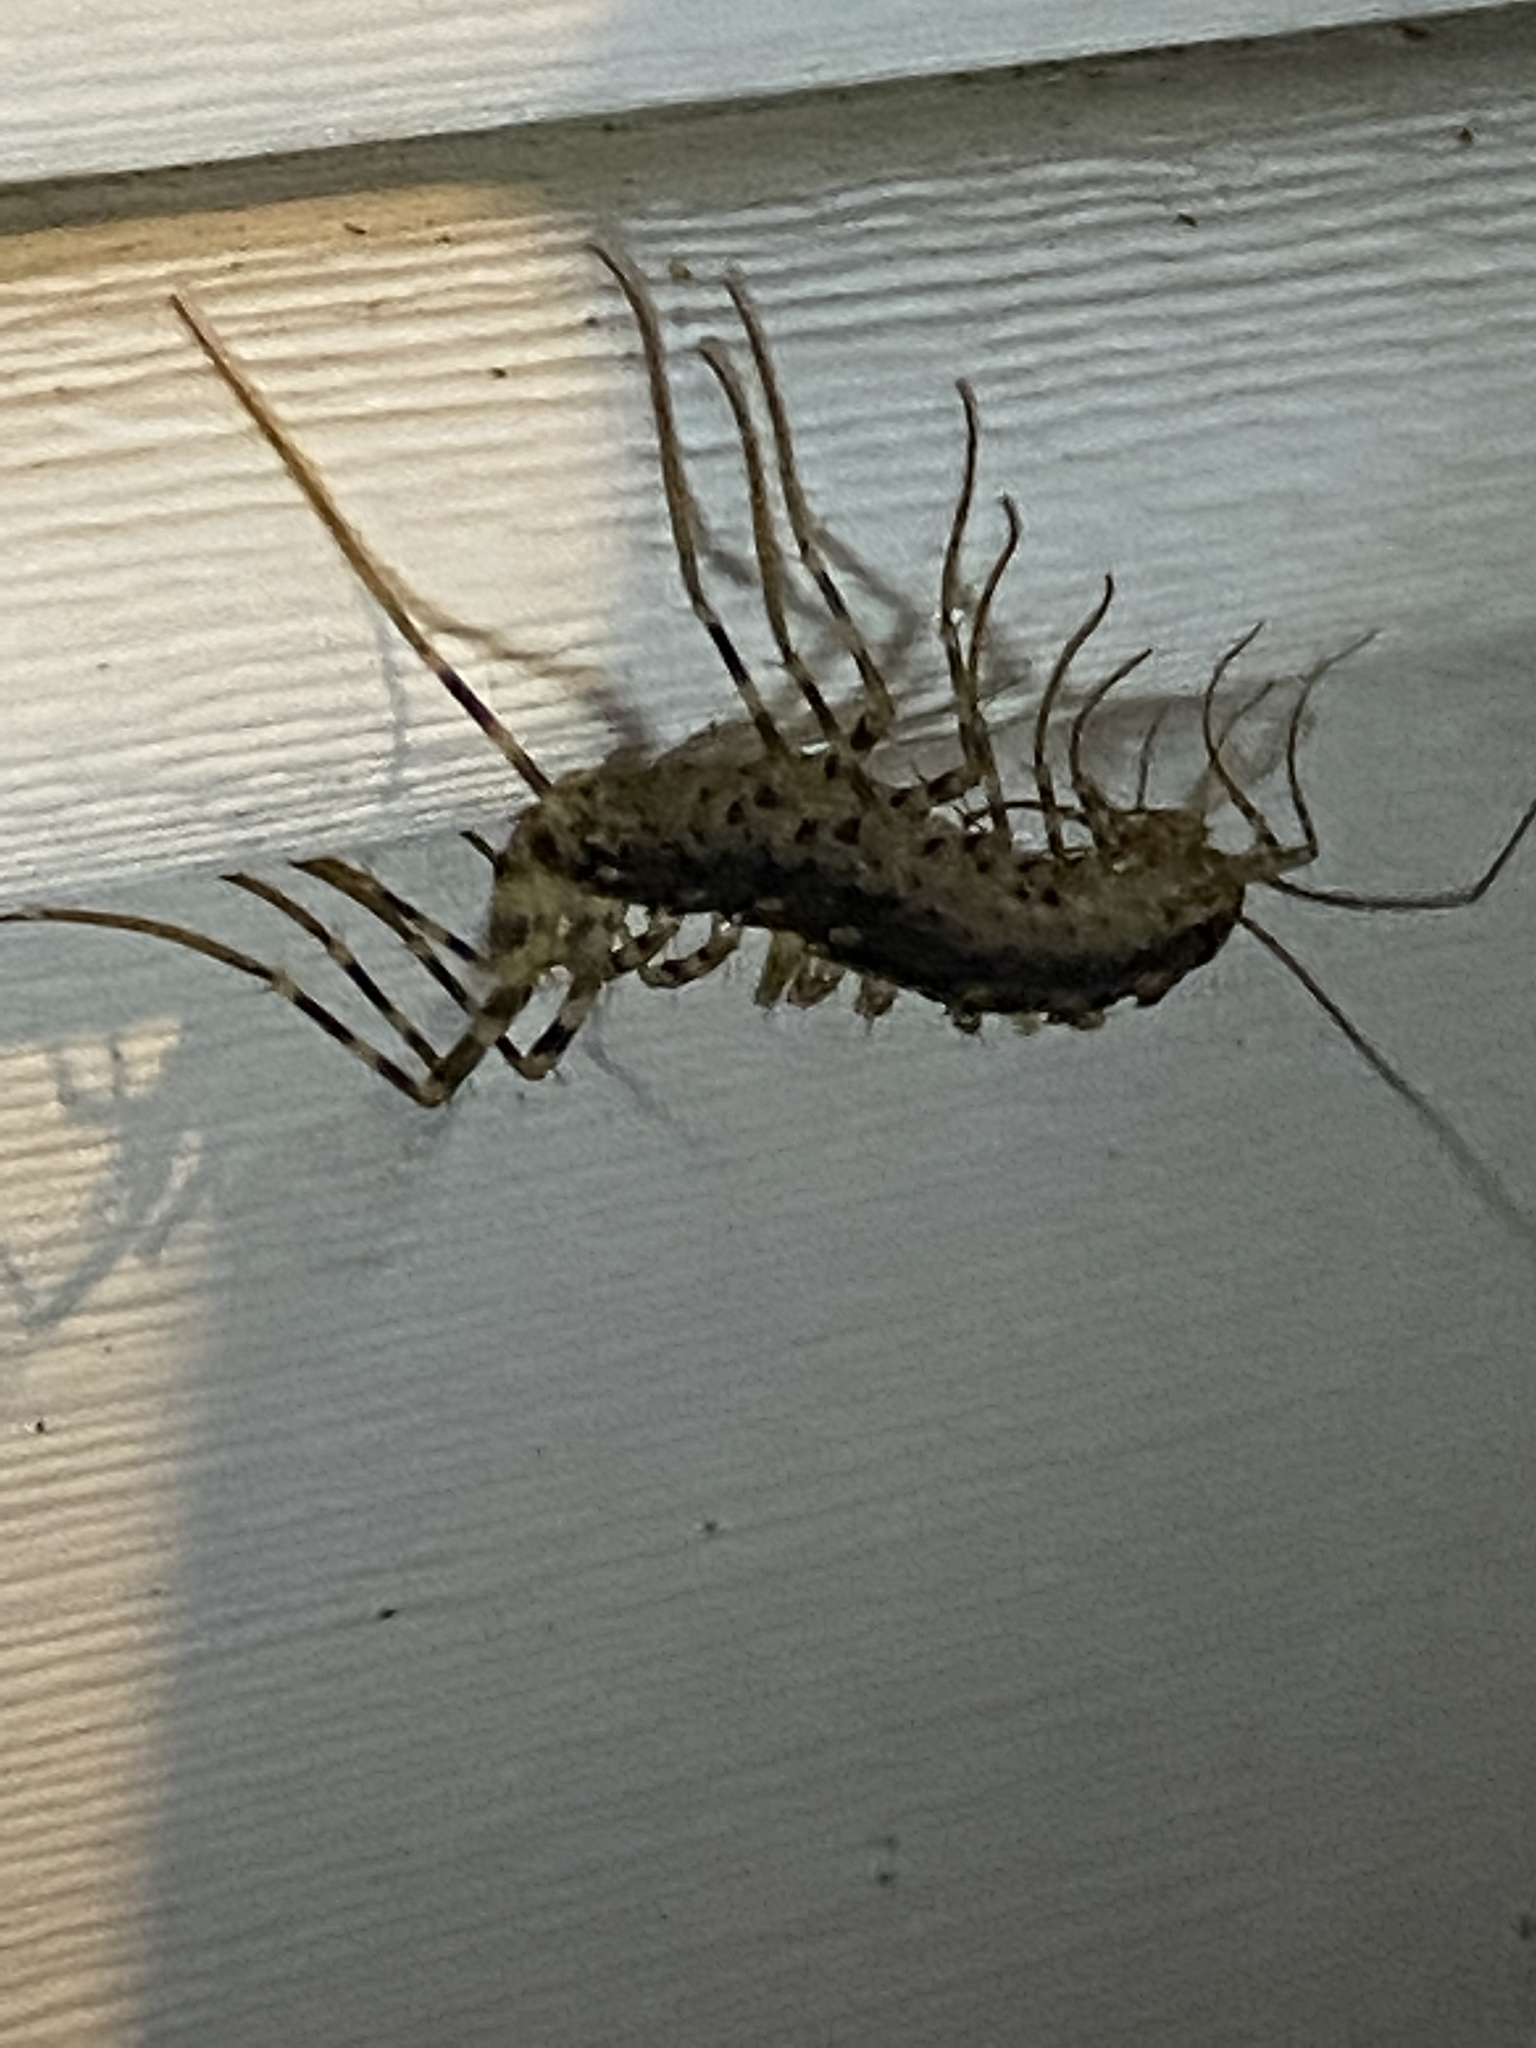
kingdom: Animalia
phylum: Arthropoda
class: Chilopoda
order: Scutigeromorpha
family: Scutigeridae
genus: Scutigera
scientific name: Scutigera coleoptrata
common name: House centipede
